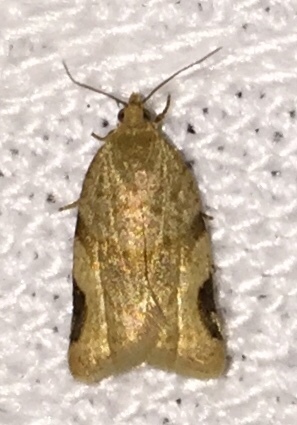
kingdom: Animalia
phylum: Arthropoda
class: Insecta
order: Lepidoptera
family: Tortricidae
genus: Clepsis
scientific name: Clepsis virescana
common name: Greenish apple moth
